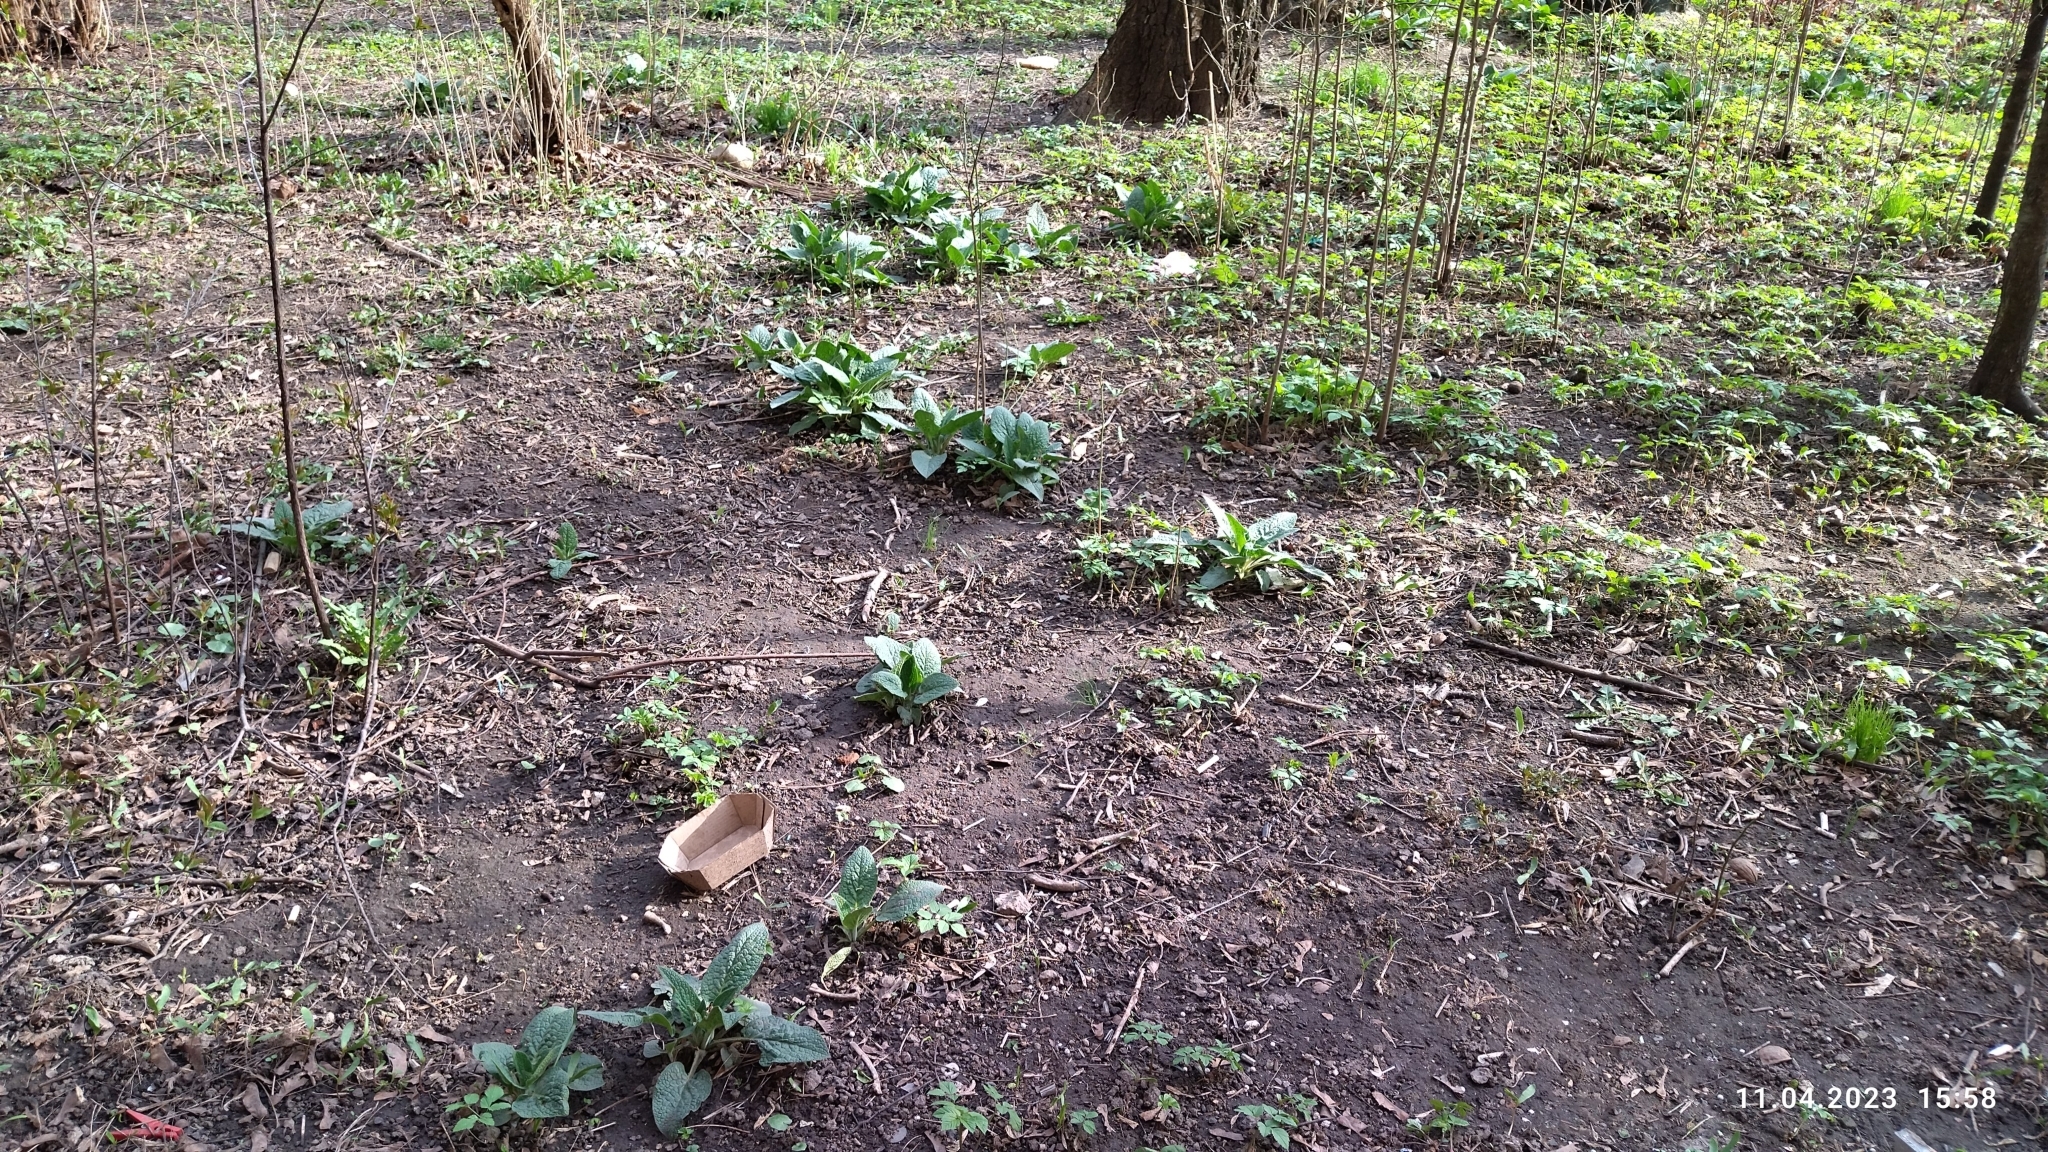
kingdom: Plantae
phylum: Tracheophyta
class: Magnoliopsida
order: Boraginales
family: Boraginaceae
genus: Symphytum
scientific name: Symphytum caucasicum
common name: Caucasian comfrey
